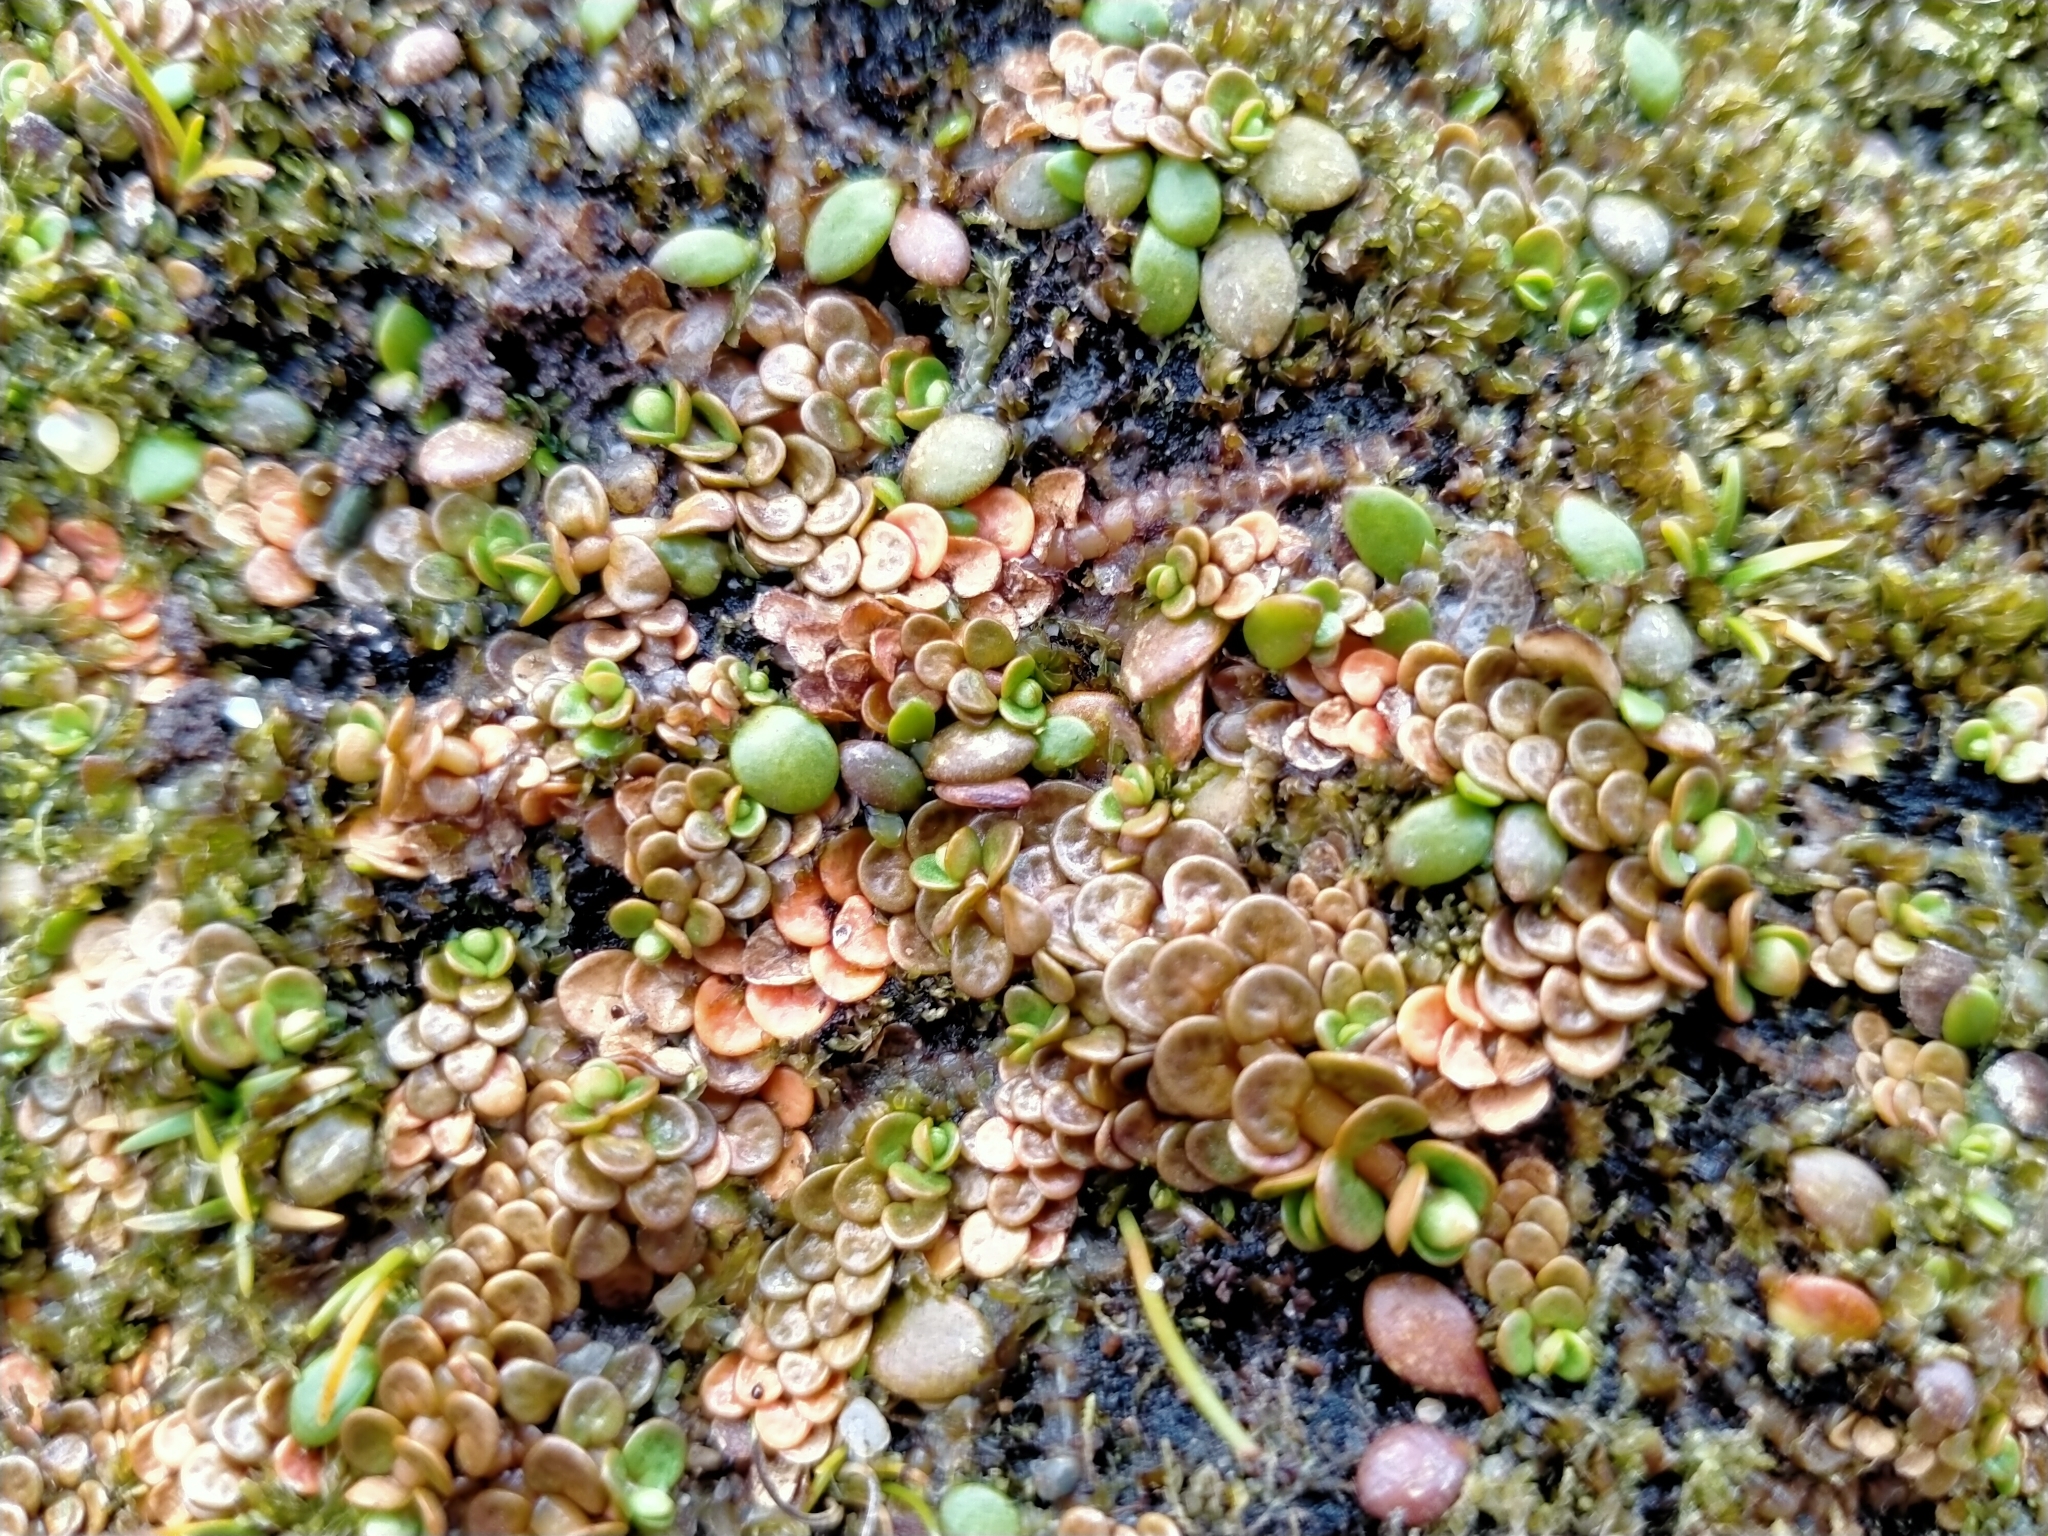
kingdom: Plantae
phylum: Tracheophyta
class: Magnoliopsida
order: Myrtales
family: Onagraceae
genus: Epilobium
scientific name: Epilobium komarovianum
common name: Bronzy willowherb
